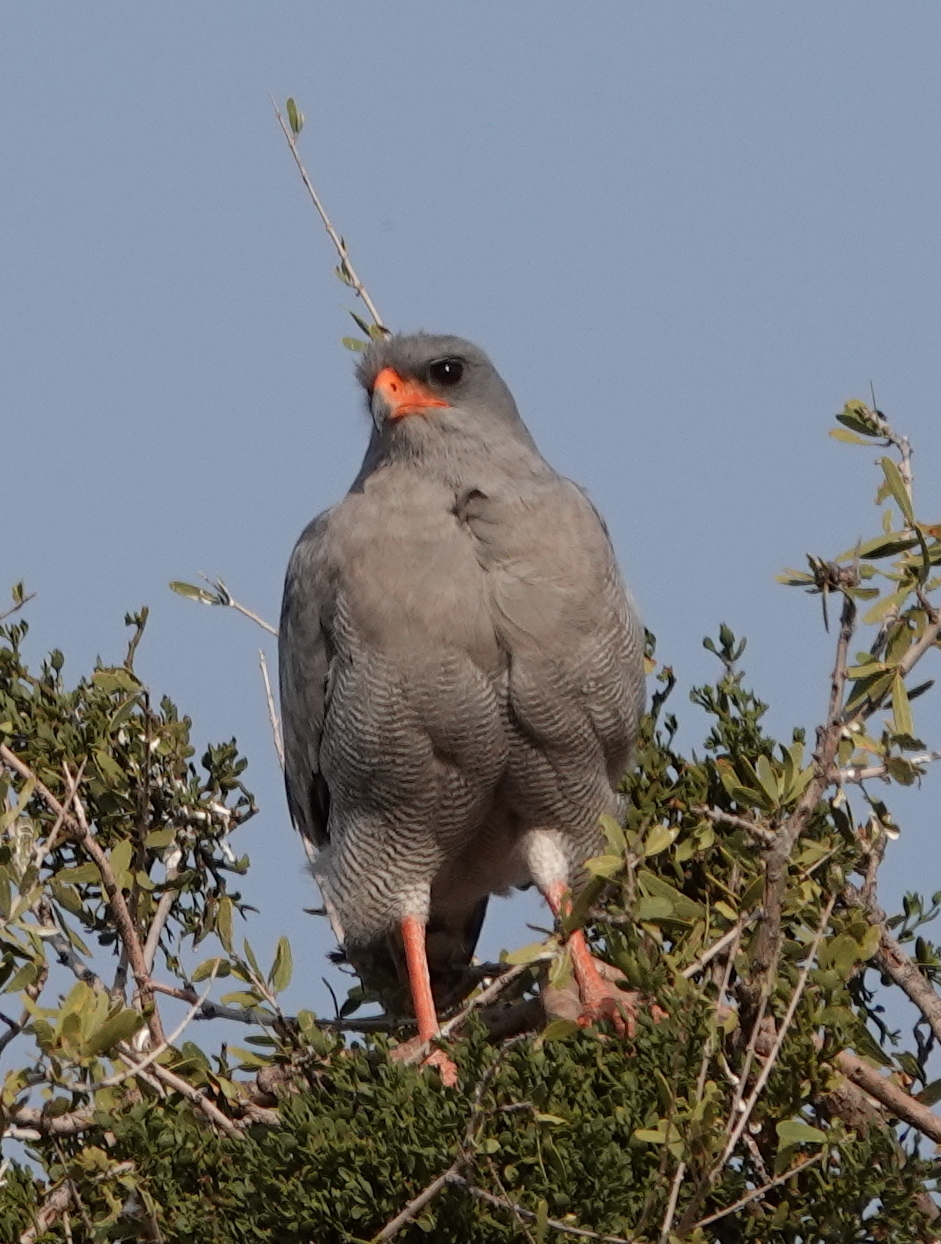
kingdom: Animalia
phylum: Chordata
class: Aves
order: Accipitriformes
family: Accipitridae
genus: Melierax
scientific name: Melierax canorus
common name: Pale chanting-goshawk
